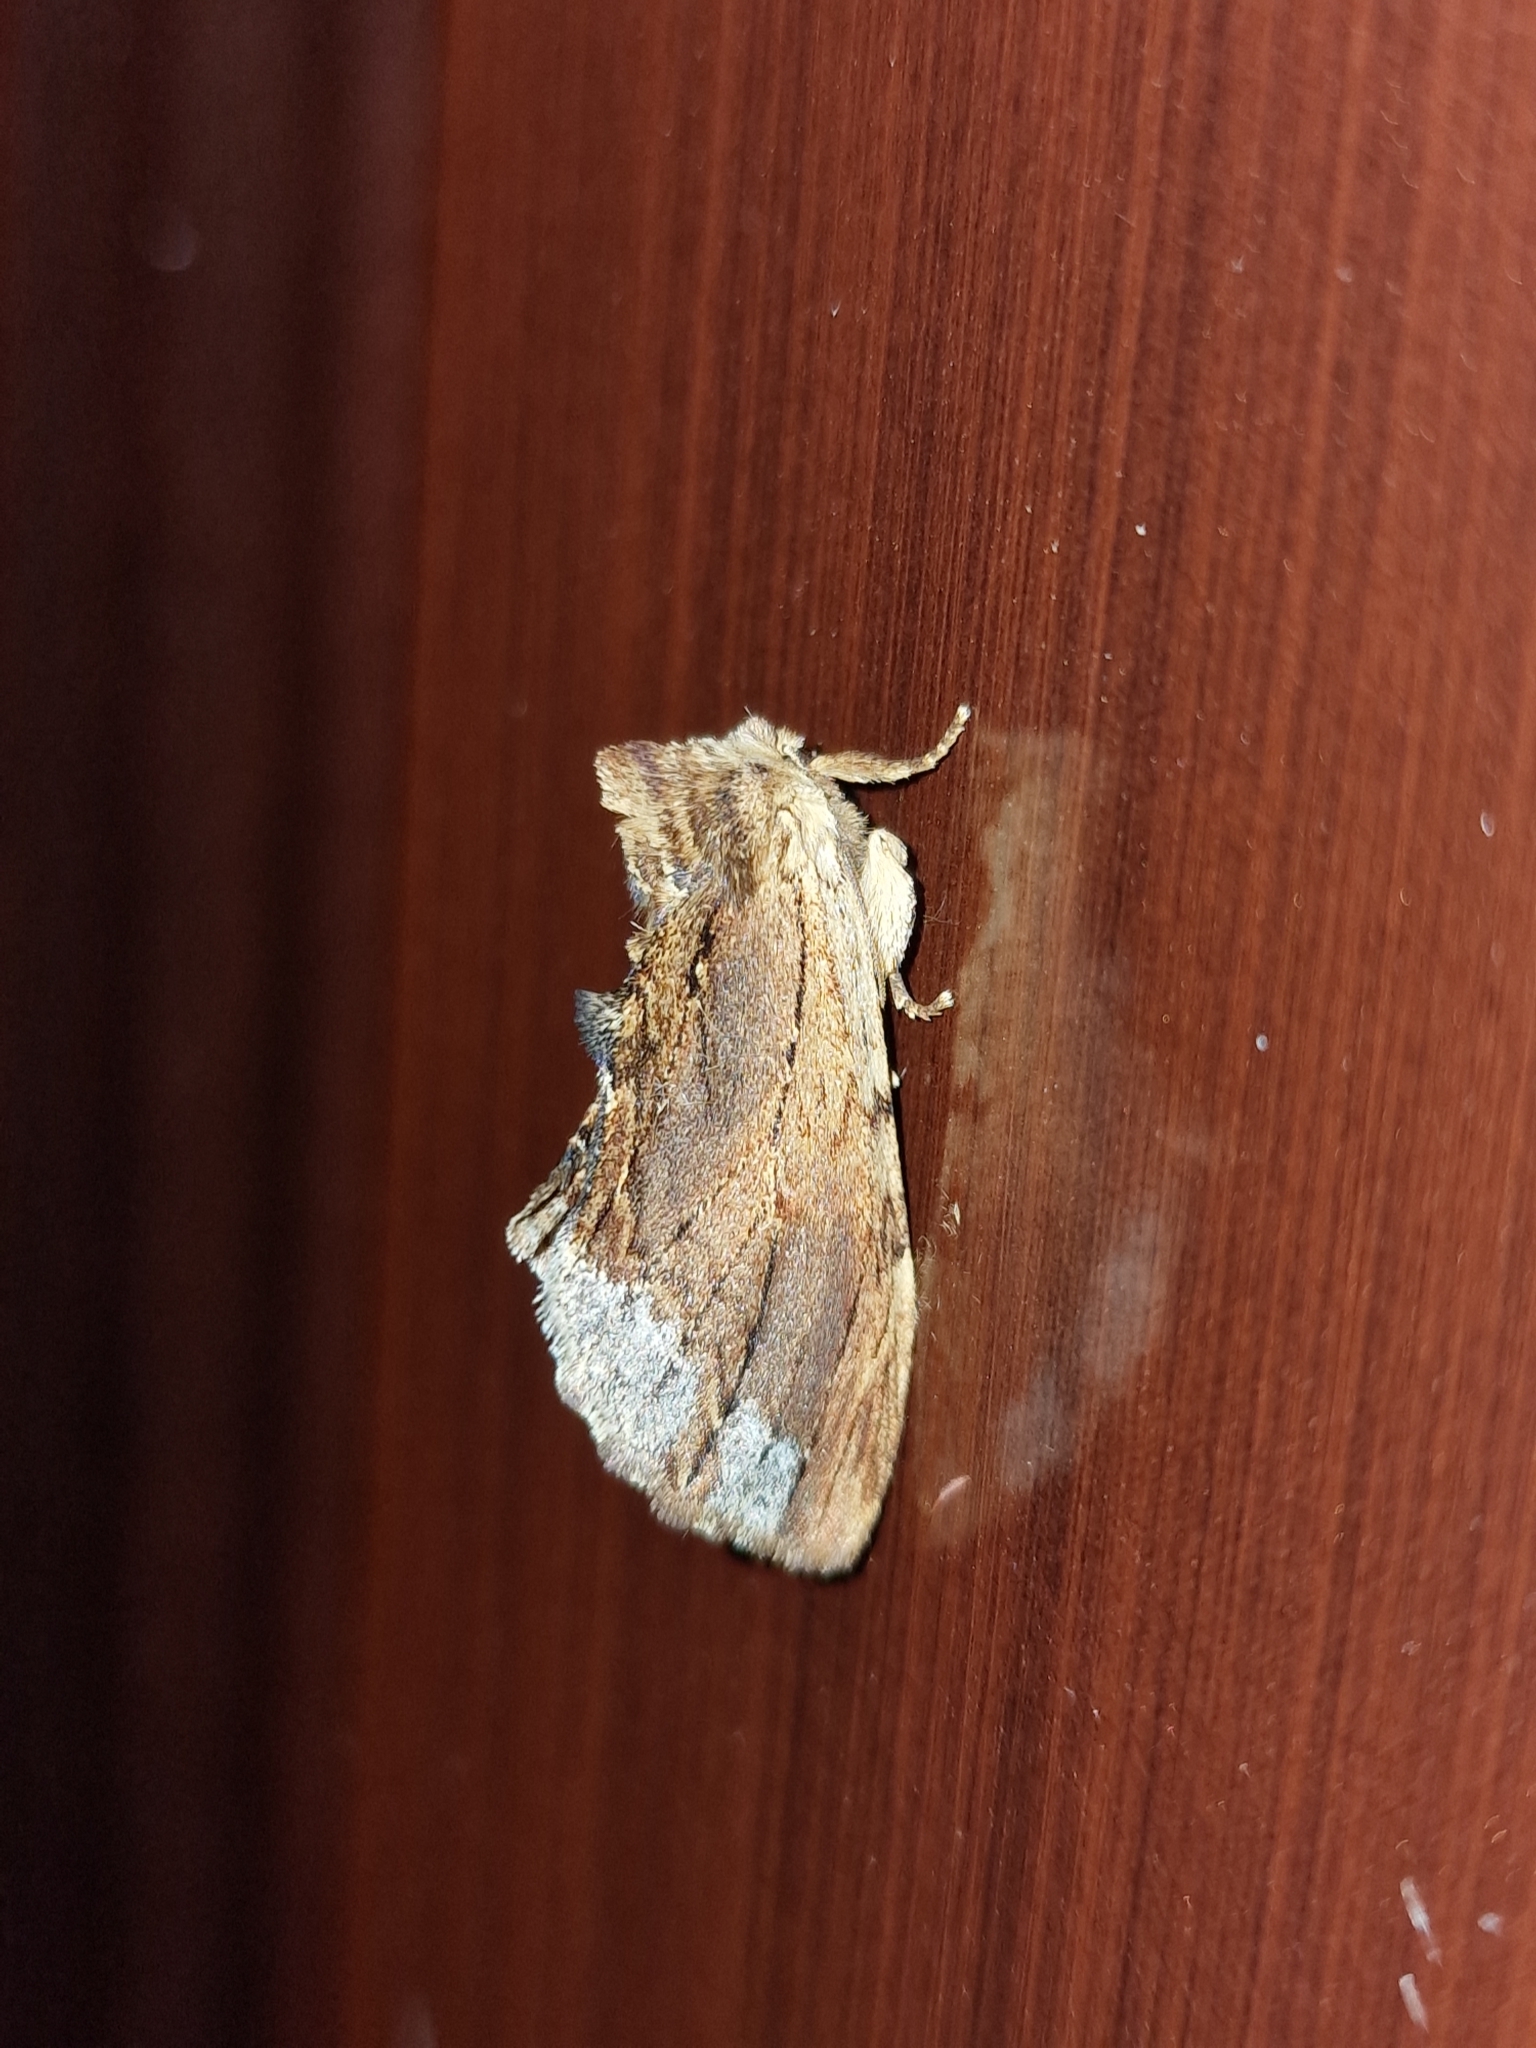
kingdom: Animalia
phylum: Arthropoda
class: Insecta
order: Lepidoptera
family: Notodontidae
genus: Ptilodon
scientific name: Ptilodon cucullina
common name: Maple prominent
